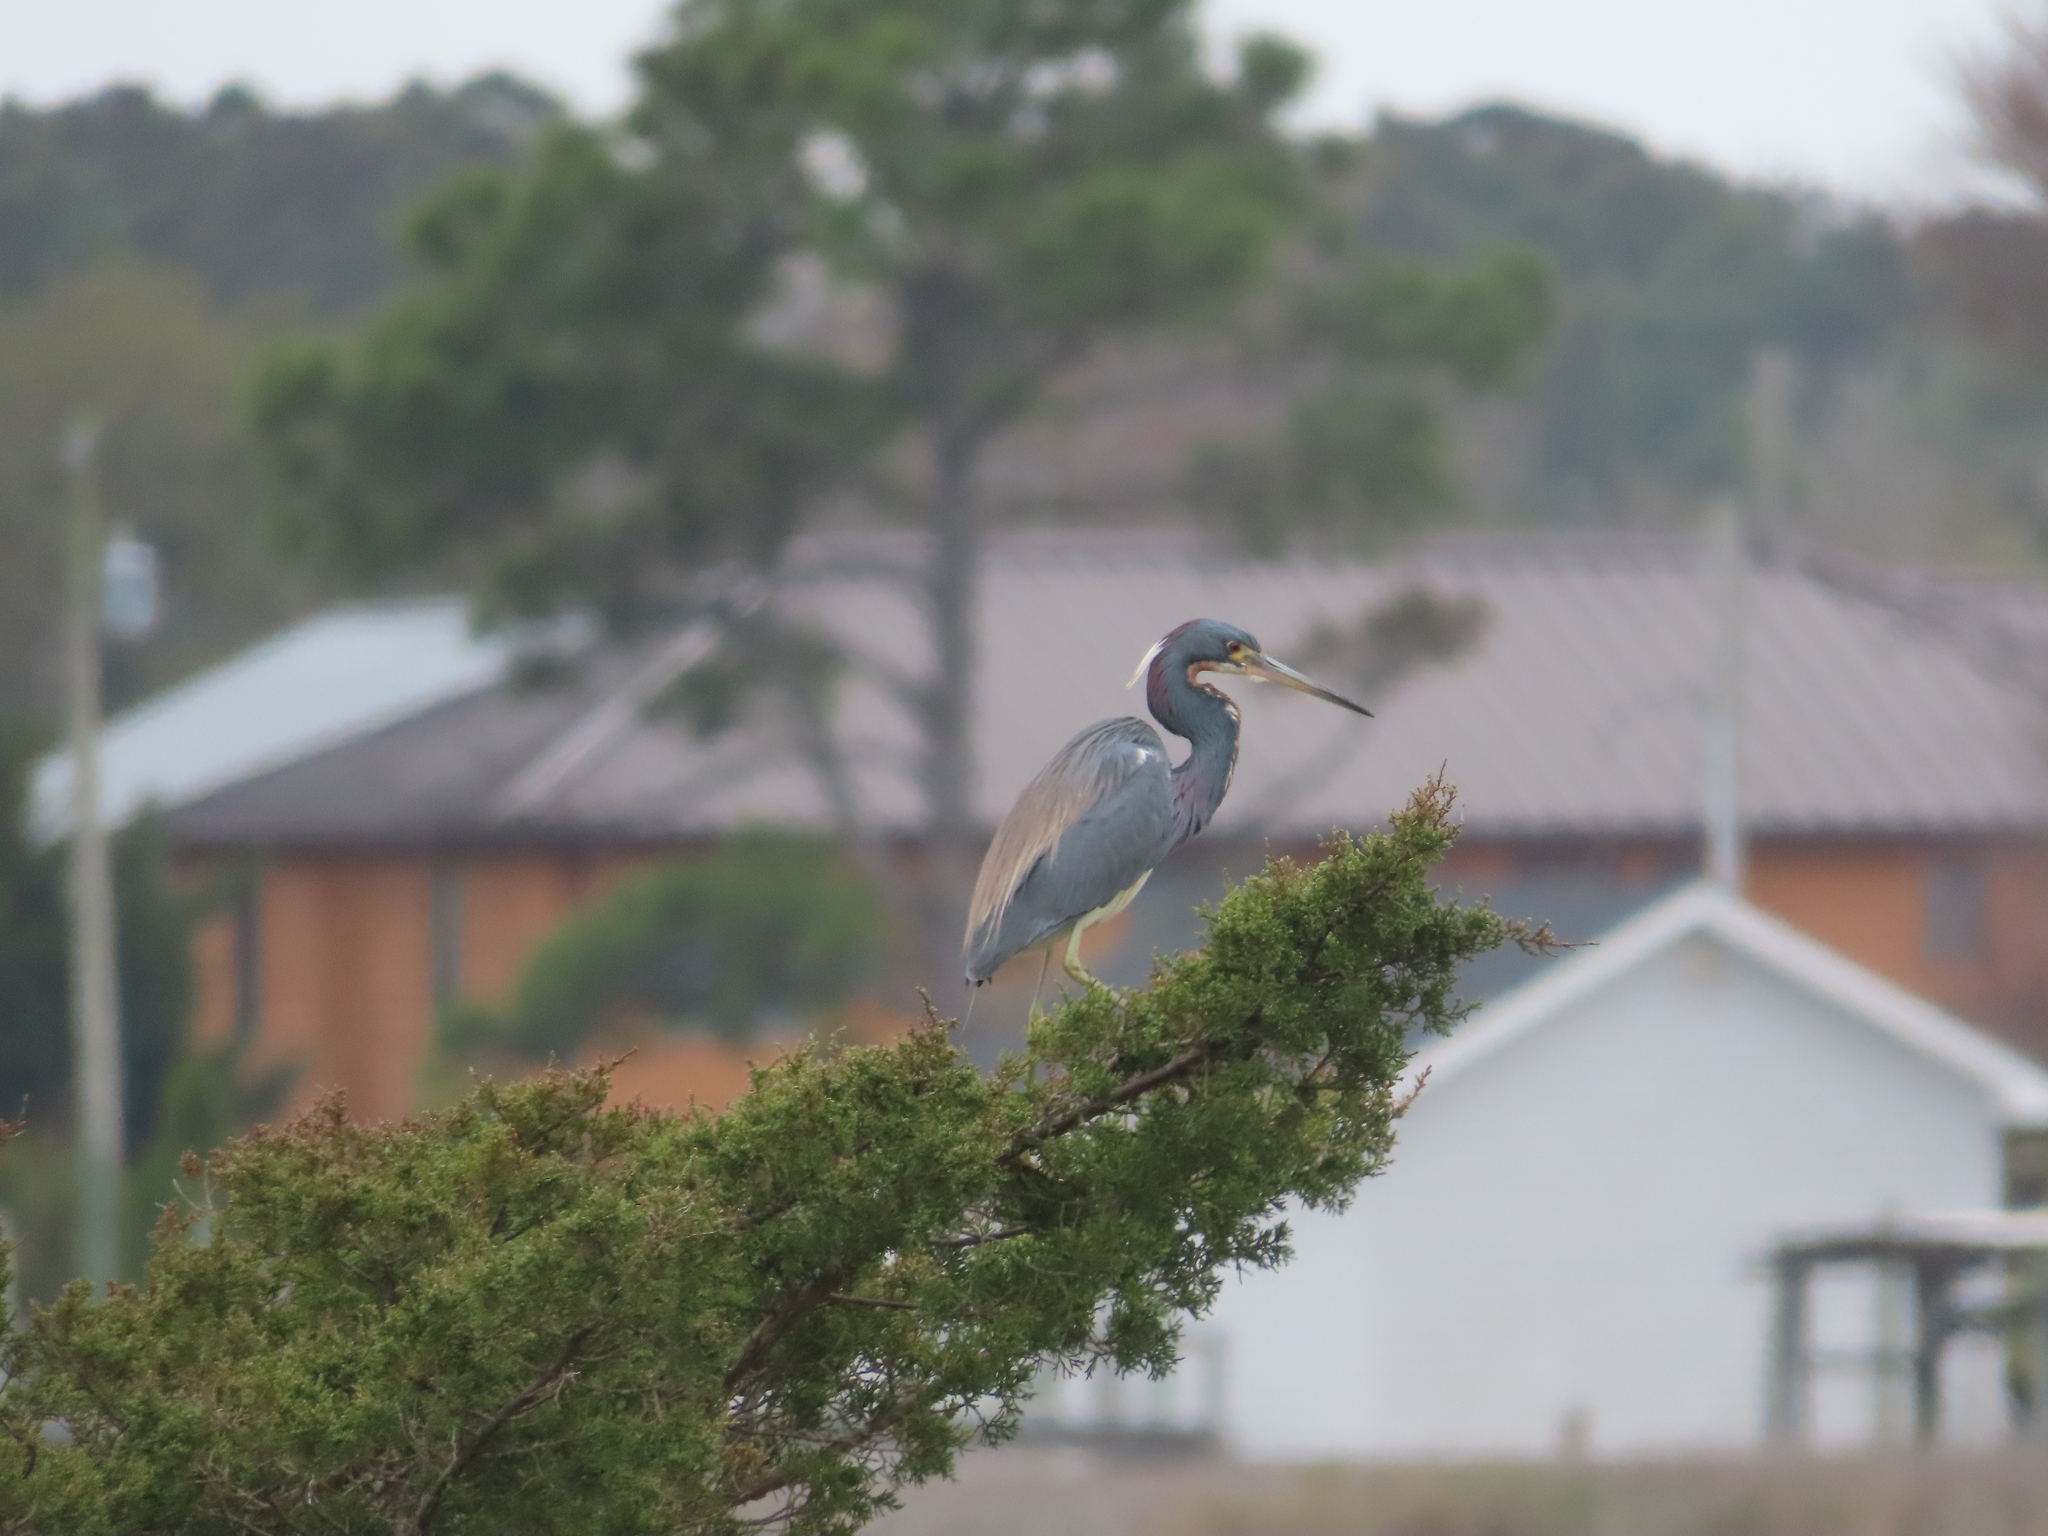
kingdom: Animalia
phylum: Chordata
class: Aves
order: Pelecaniformes
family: Ardeidae
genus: Egretta
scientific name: Egretta tricolor
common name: Tricolored heron
